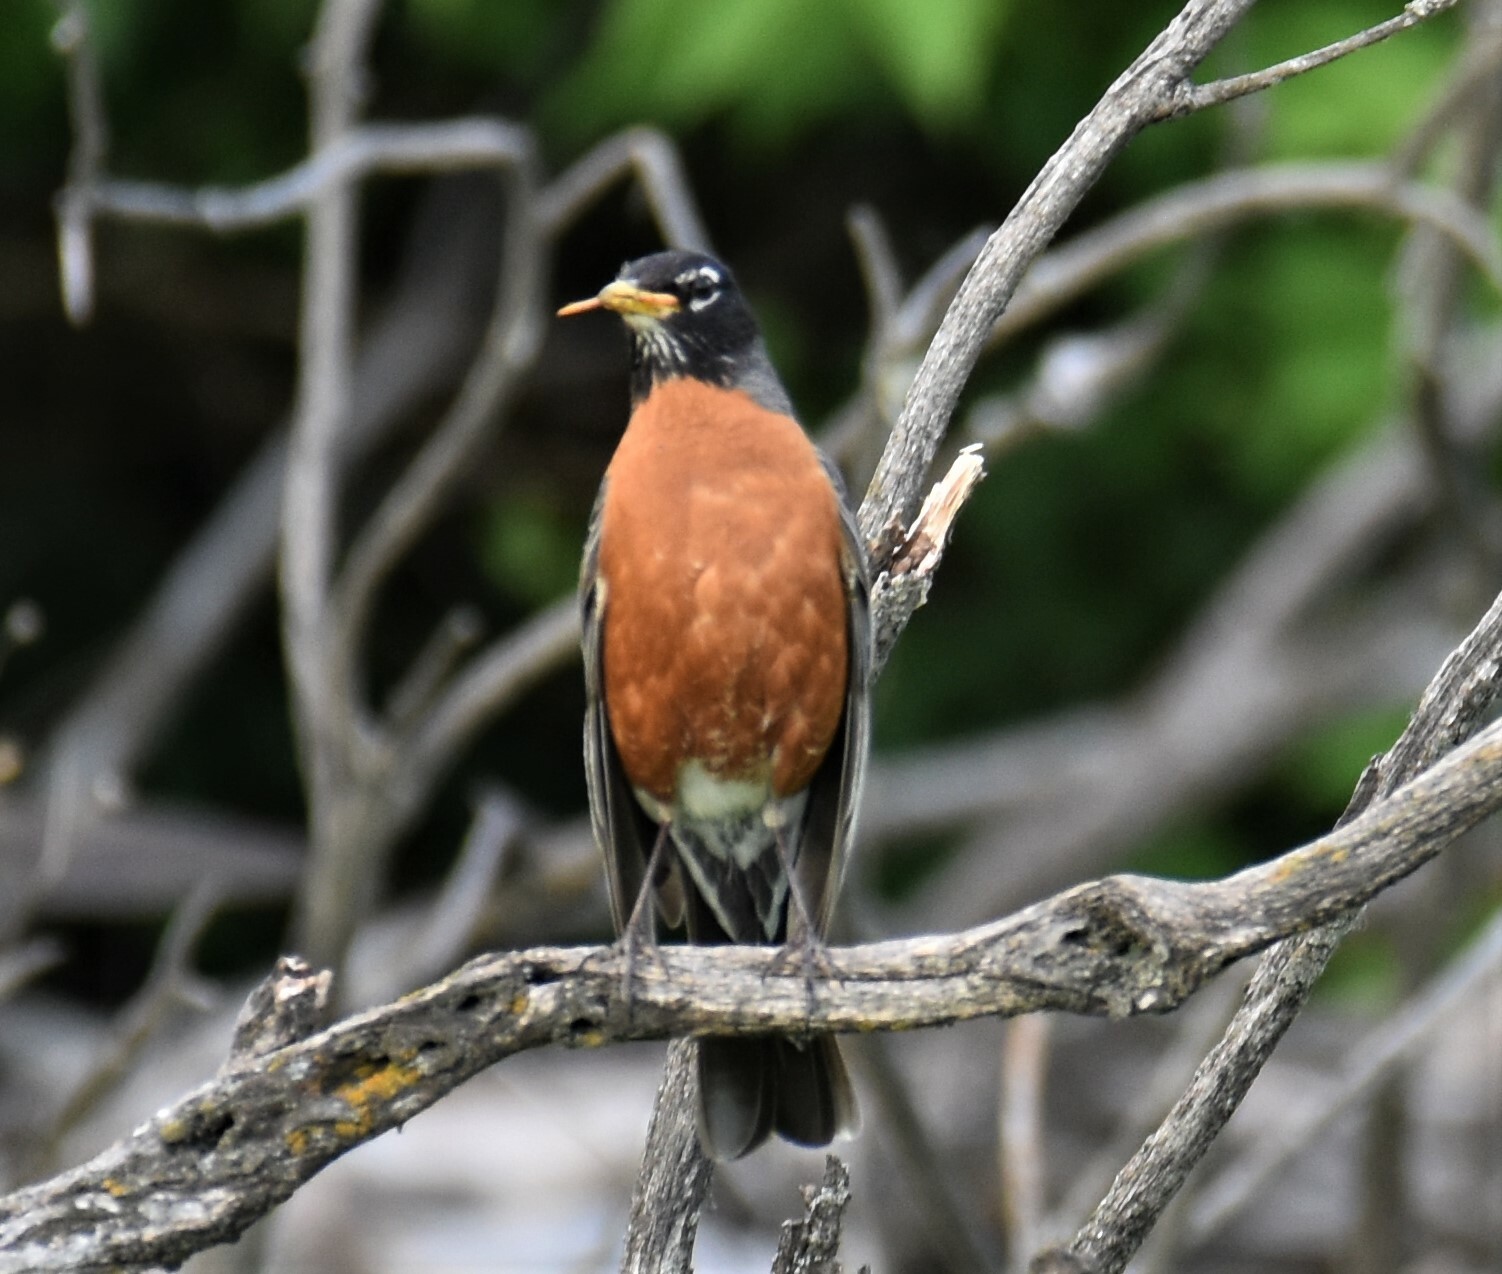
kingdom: Animalia
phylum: Chordata
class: Aves
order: Passeriformes
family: Turdidae
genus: Turdus
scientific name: Turdus migratorius
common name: American robin
